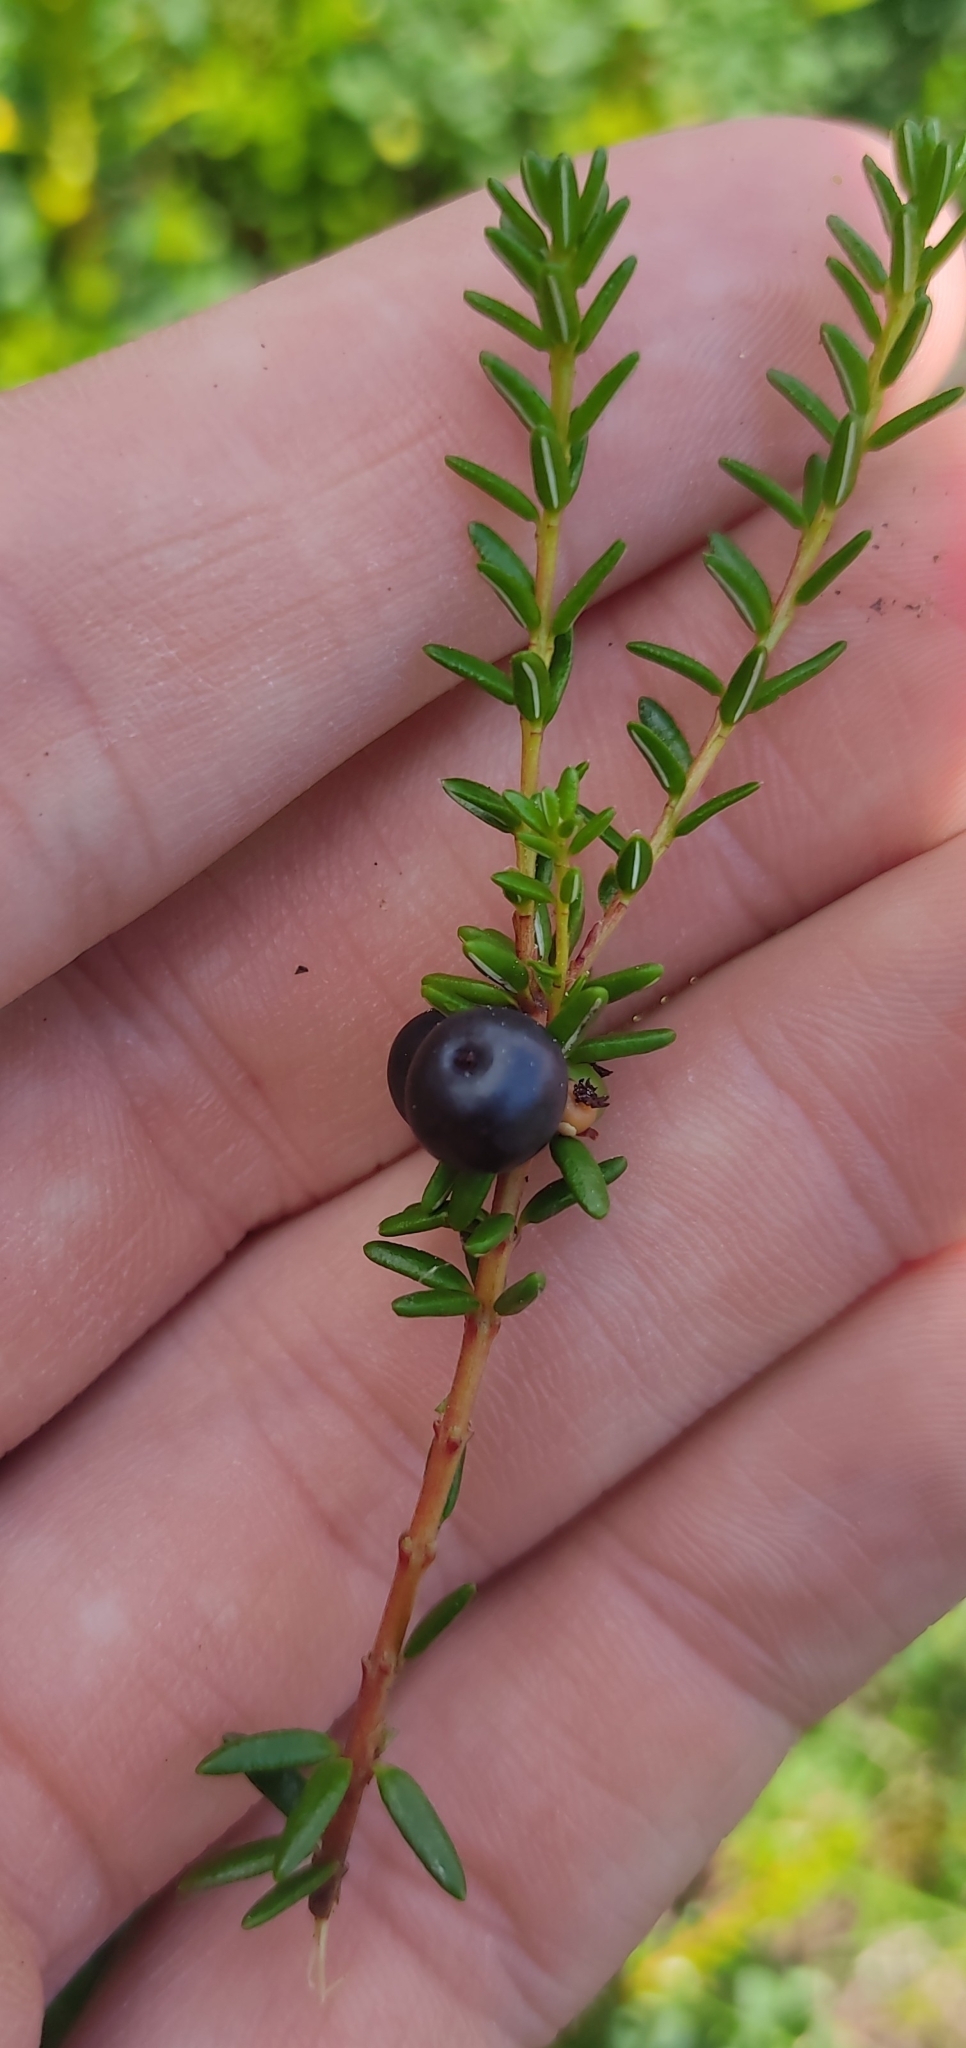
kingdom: Plantae
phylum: Tracheophyta
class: Magnoliopsida
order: Ericales
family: Ericaceae
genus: Empetrum
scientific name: Empetrum hermaphroditum
